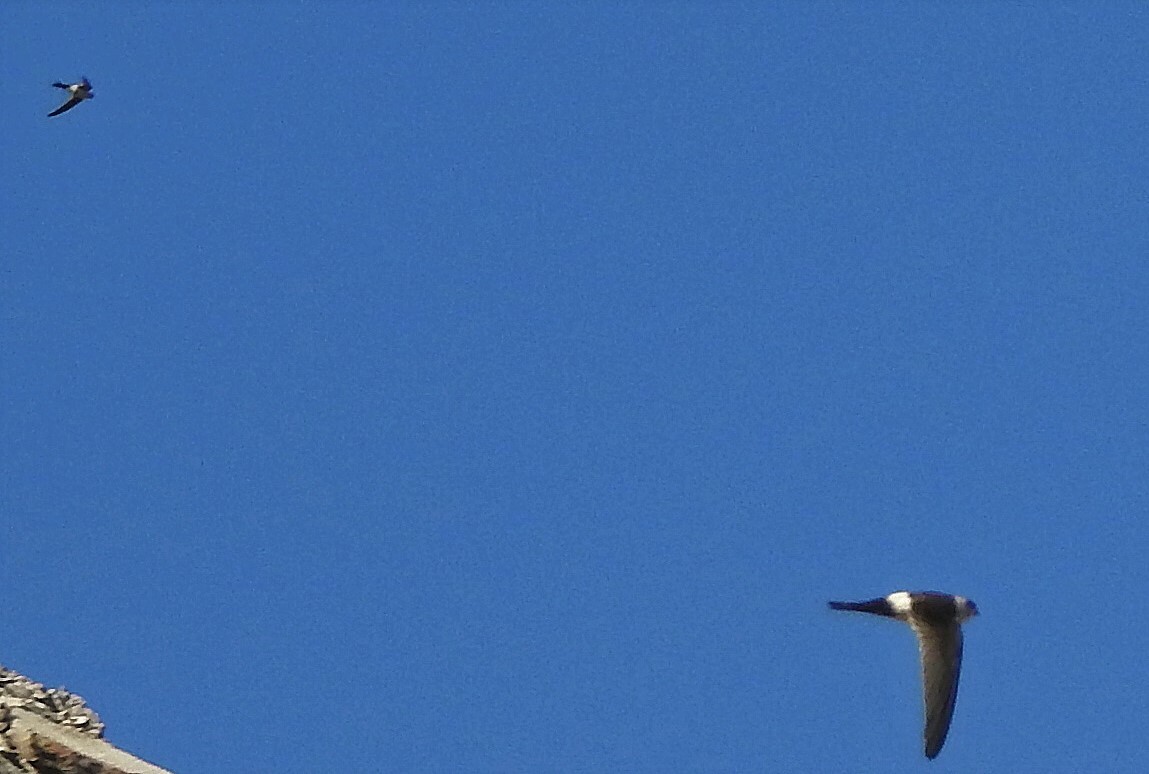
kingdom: Animalia
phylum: Chordata
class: Aves
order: Apodiformes
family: Apodidae
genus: Aeronautes
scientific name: Aeronautes andecolus
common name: Andean swift
